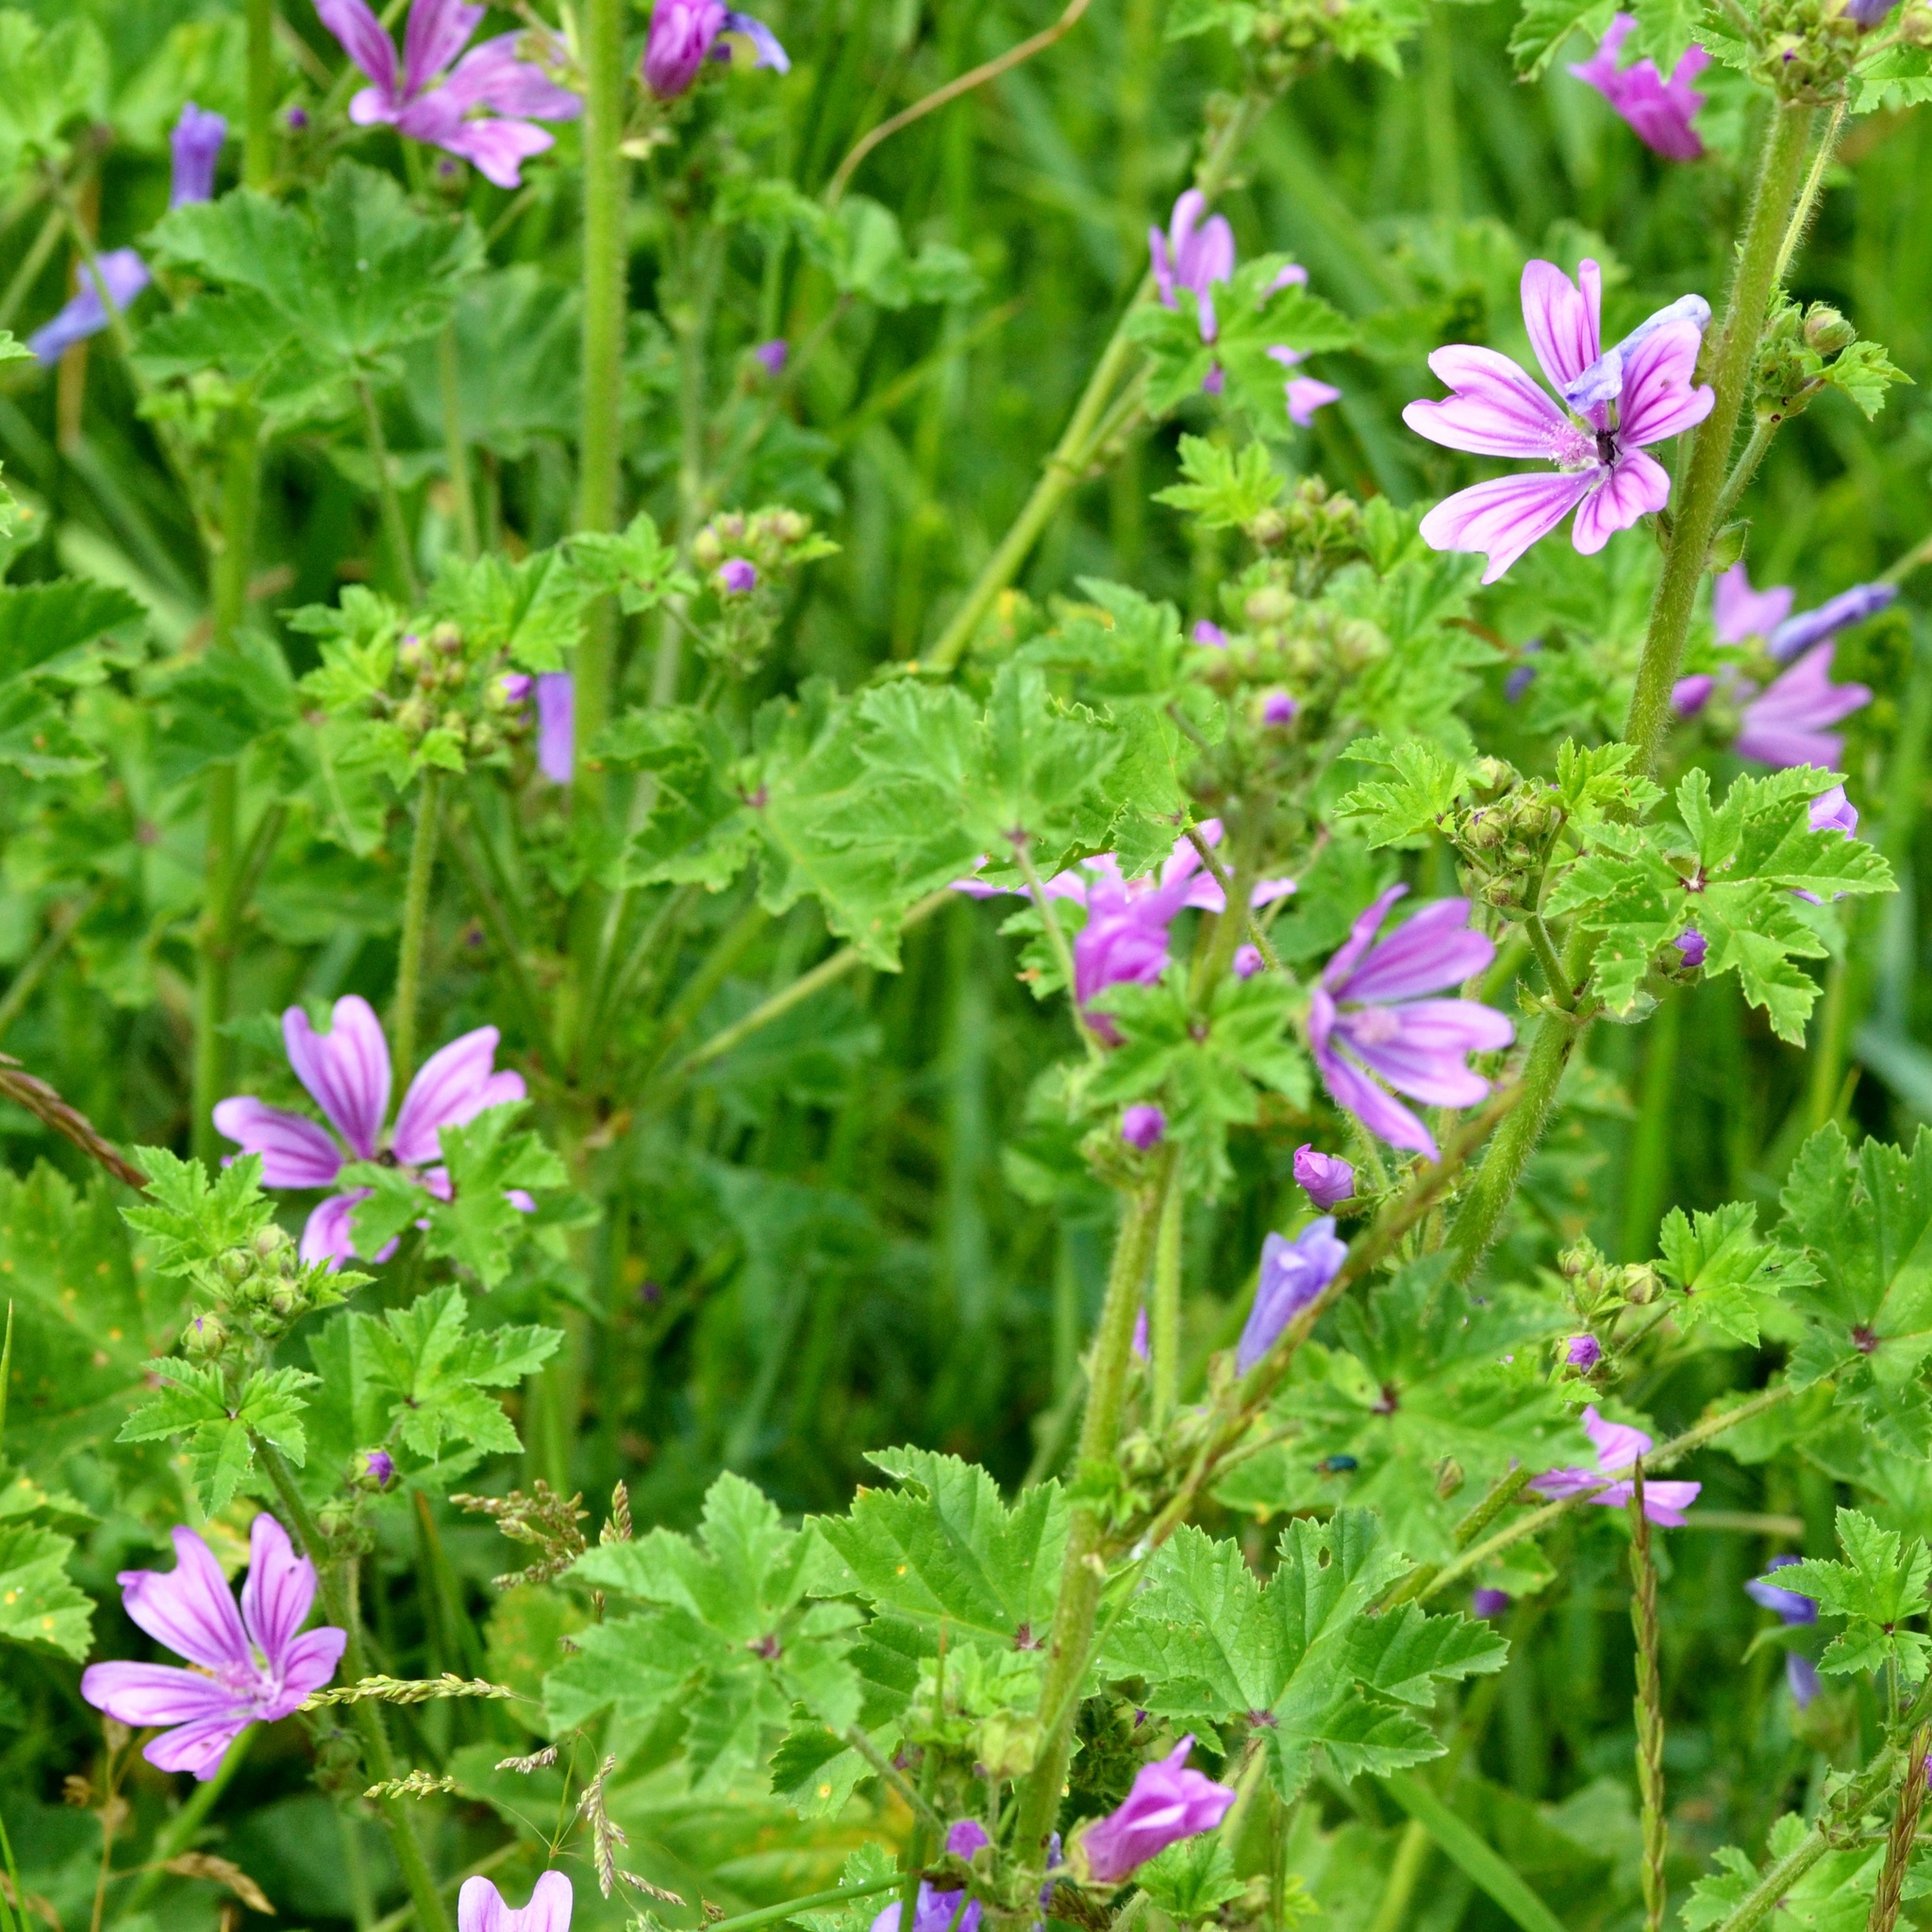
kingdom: Plantae
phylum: Tracheophyta
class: Magnoliopsida
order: Malvales
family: Malvaceae
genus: Malva
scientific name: Malva sylvestris
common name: Common mallow
